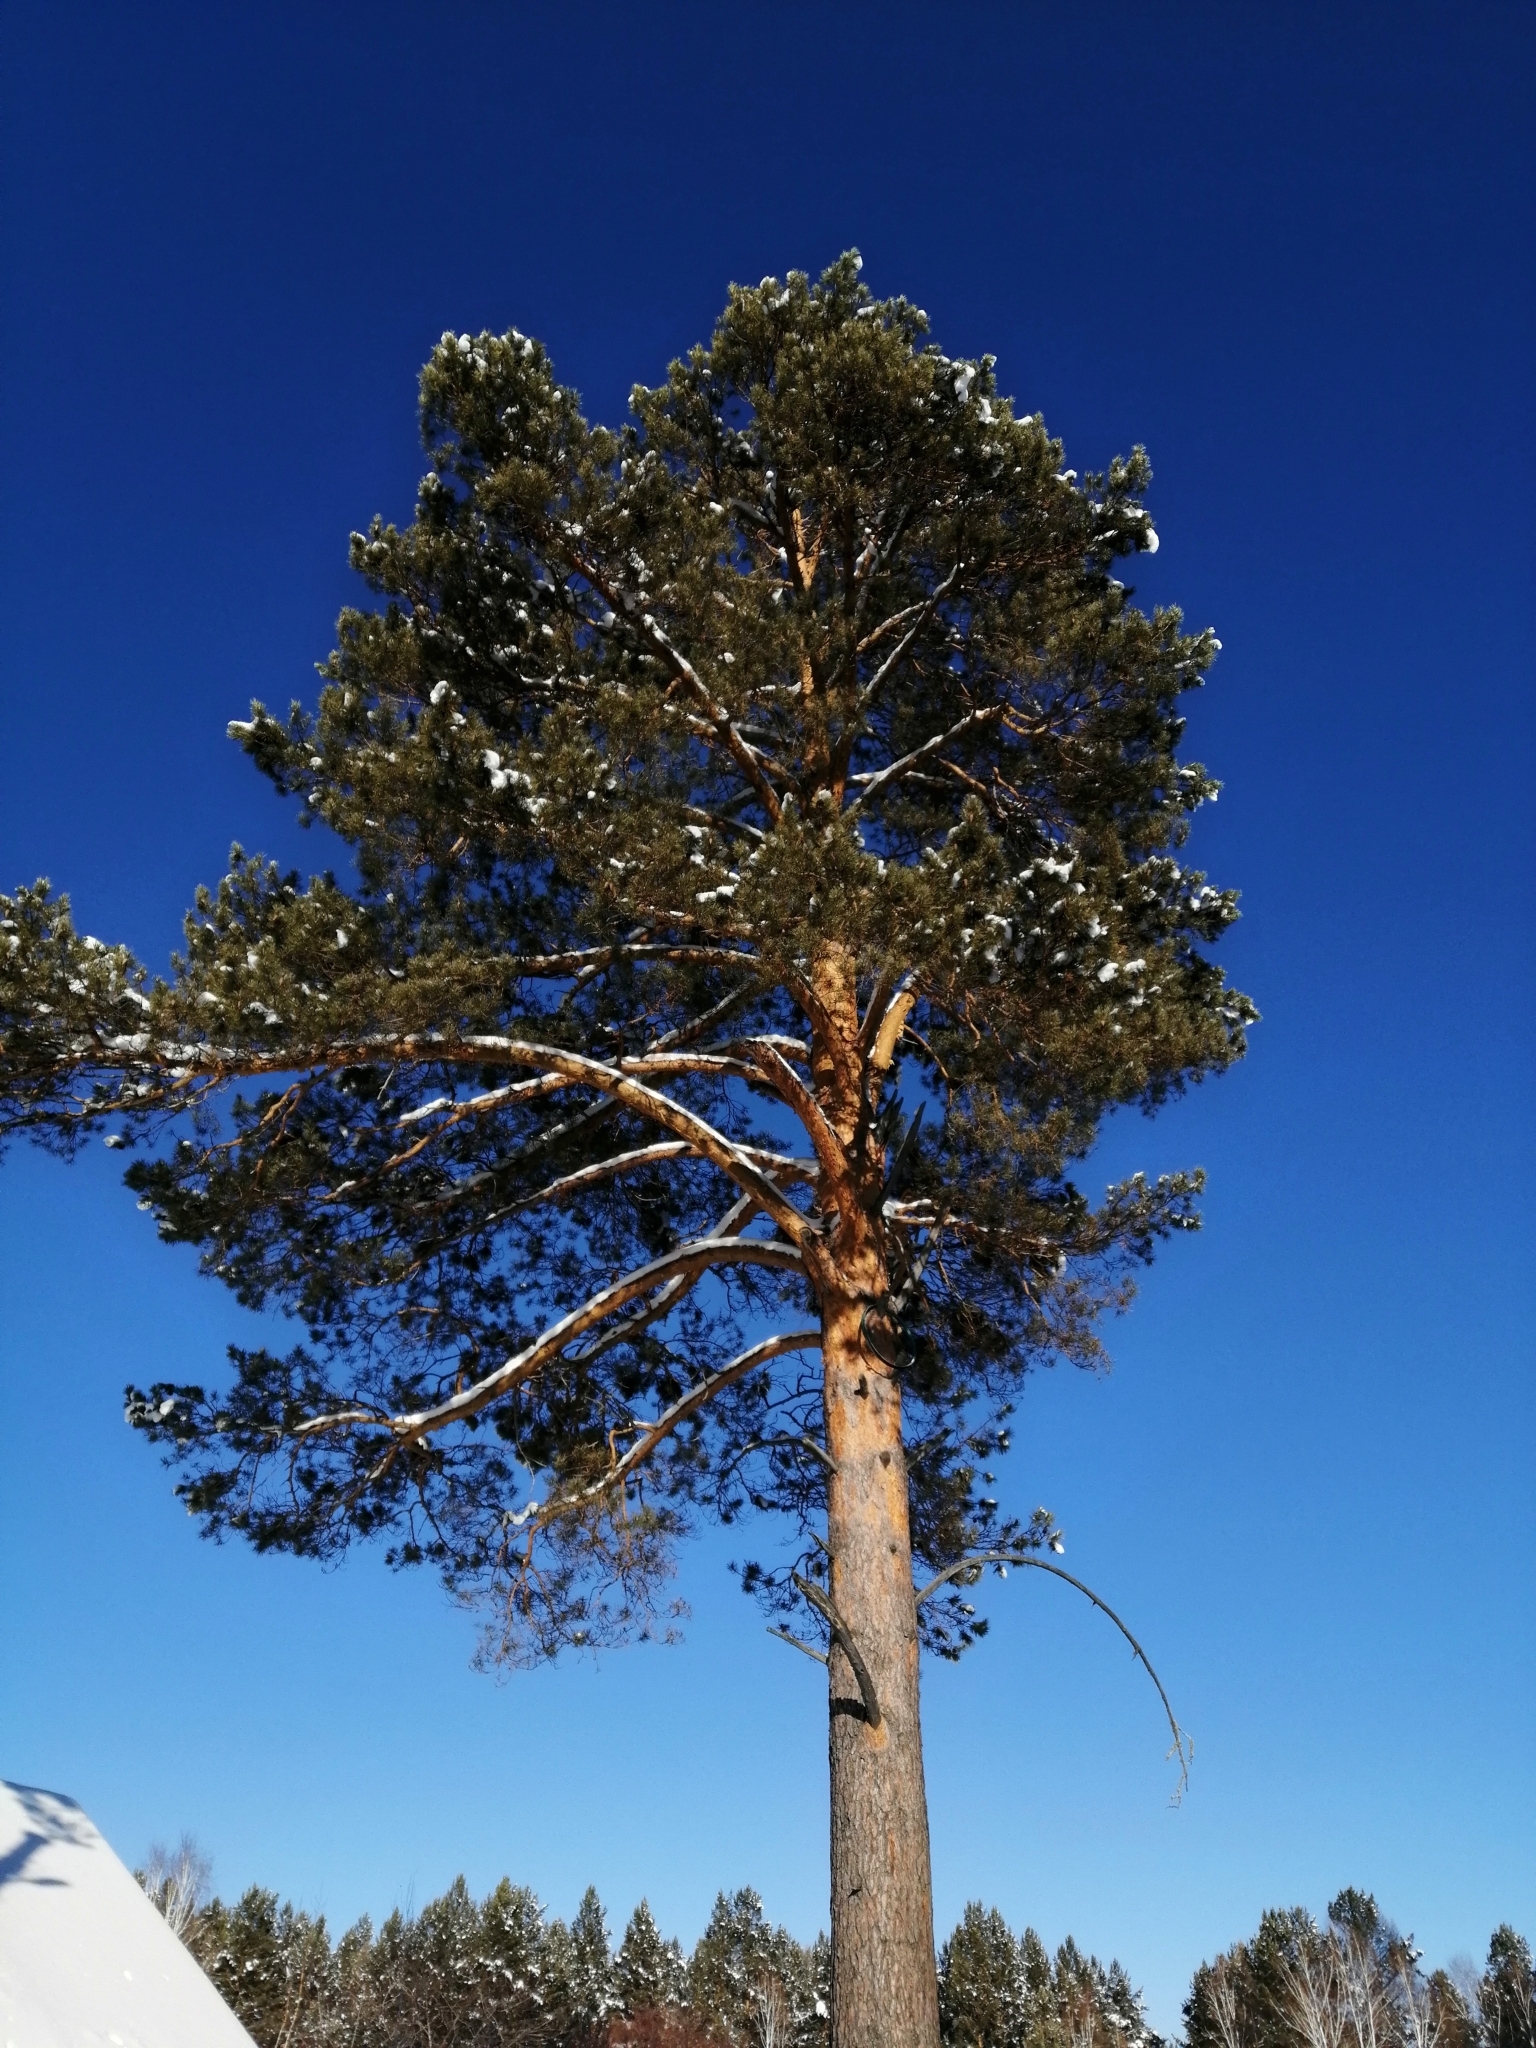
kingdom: Plantae
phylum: Tracheophyta
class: Pinopsida
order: Pinales
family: Pinaceae
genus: Pinus
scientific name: Pinus sylvestris
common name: Scots pine
